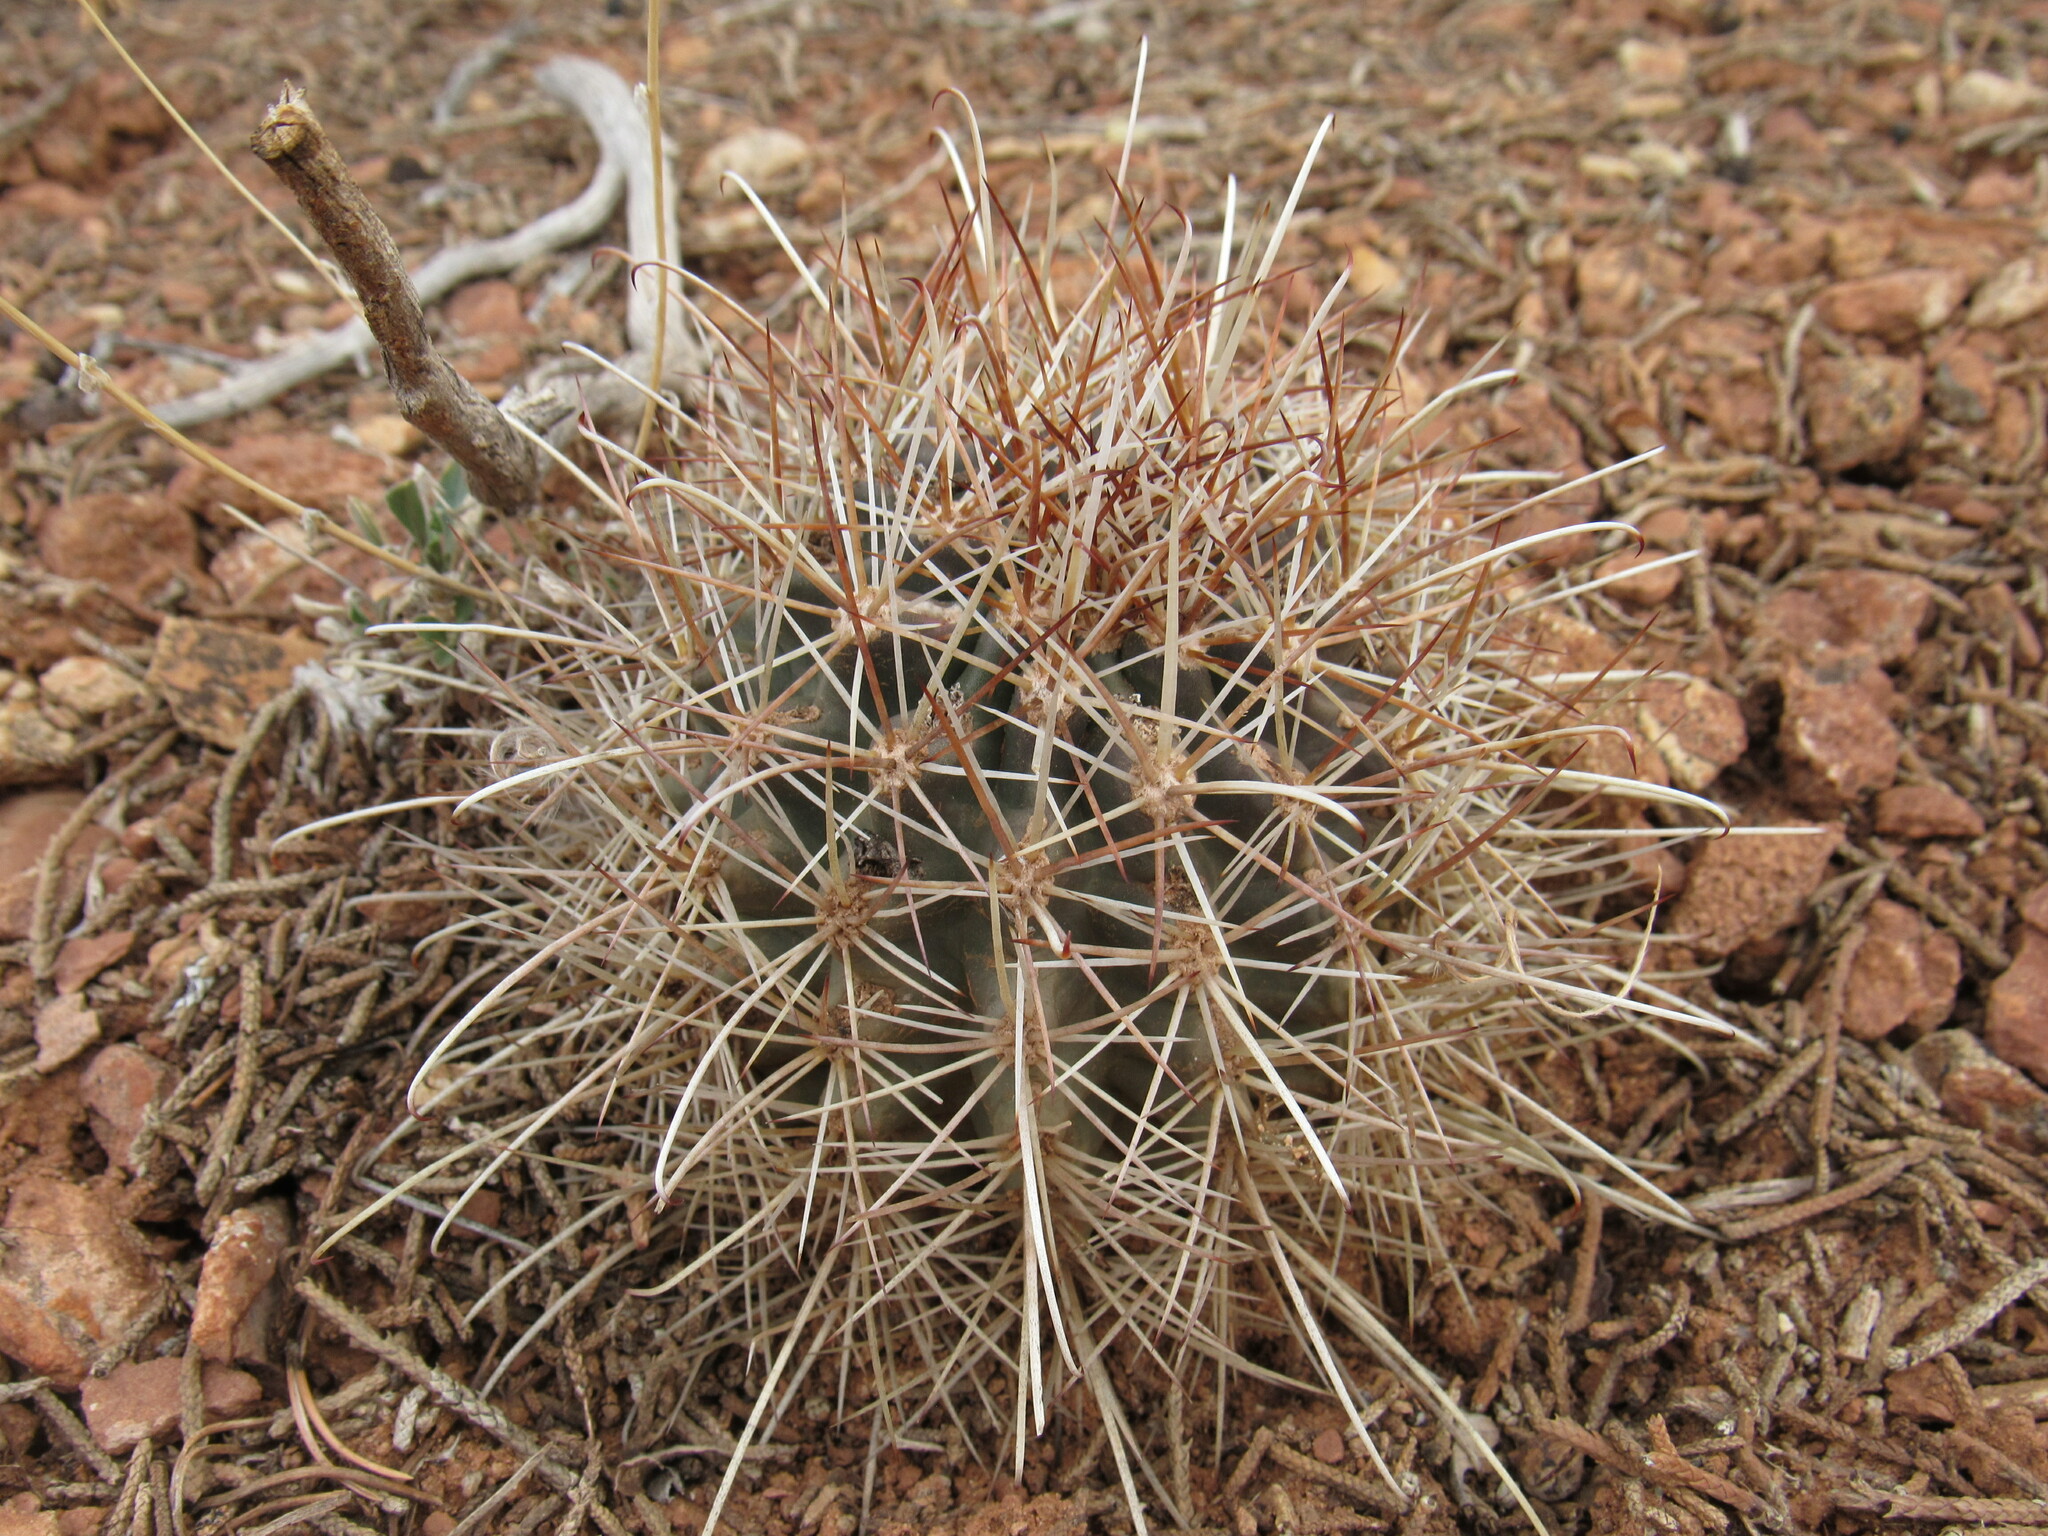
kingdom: Plantae
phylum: Tracheophyta
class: Magnoliopsida
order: Caryophyllales
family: Cactaceae
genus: Sclerocactus
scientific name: Sclerocactus parviflorus
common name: Small-flower fishhook cactus
